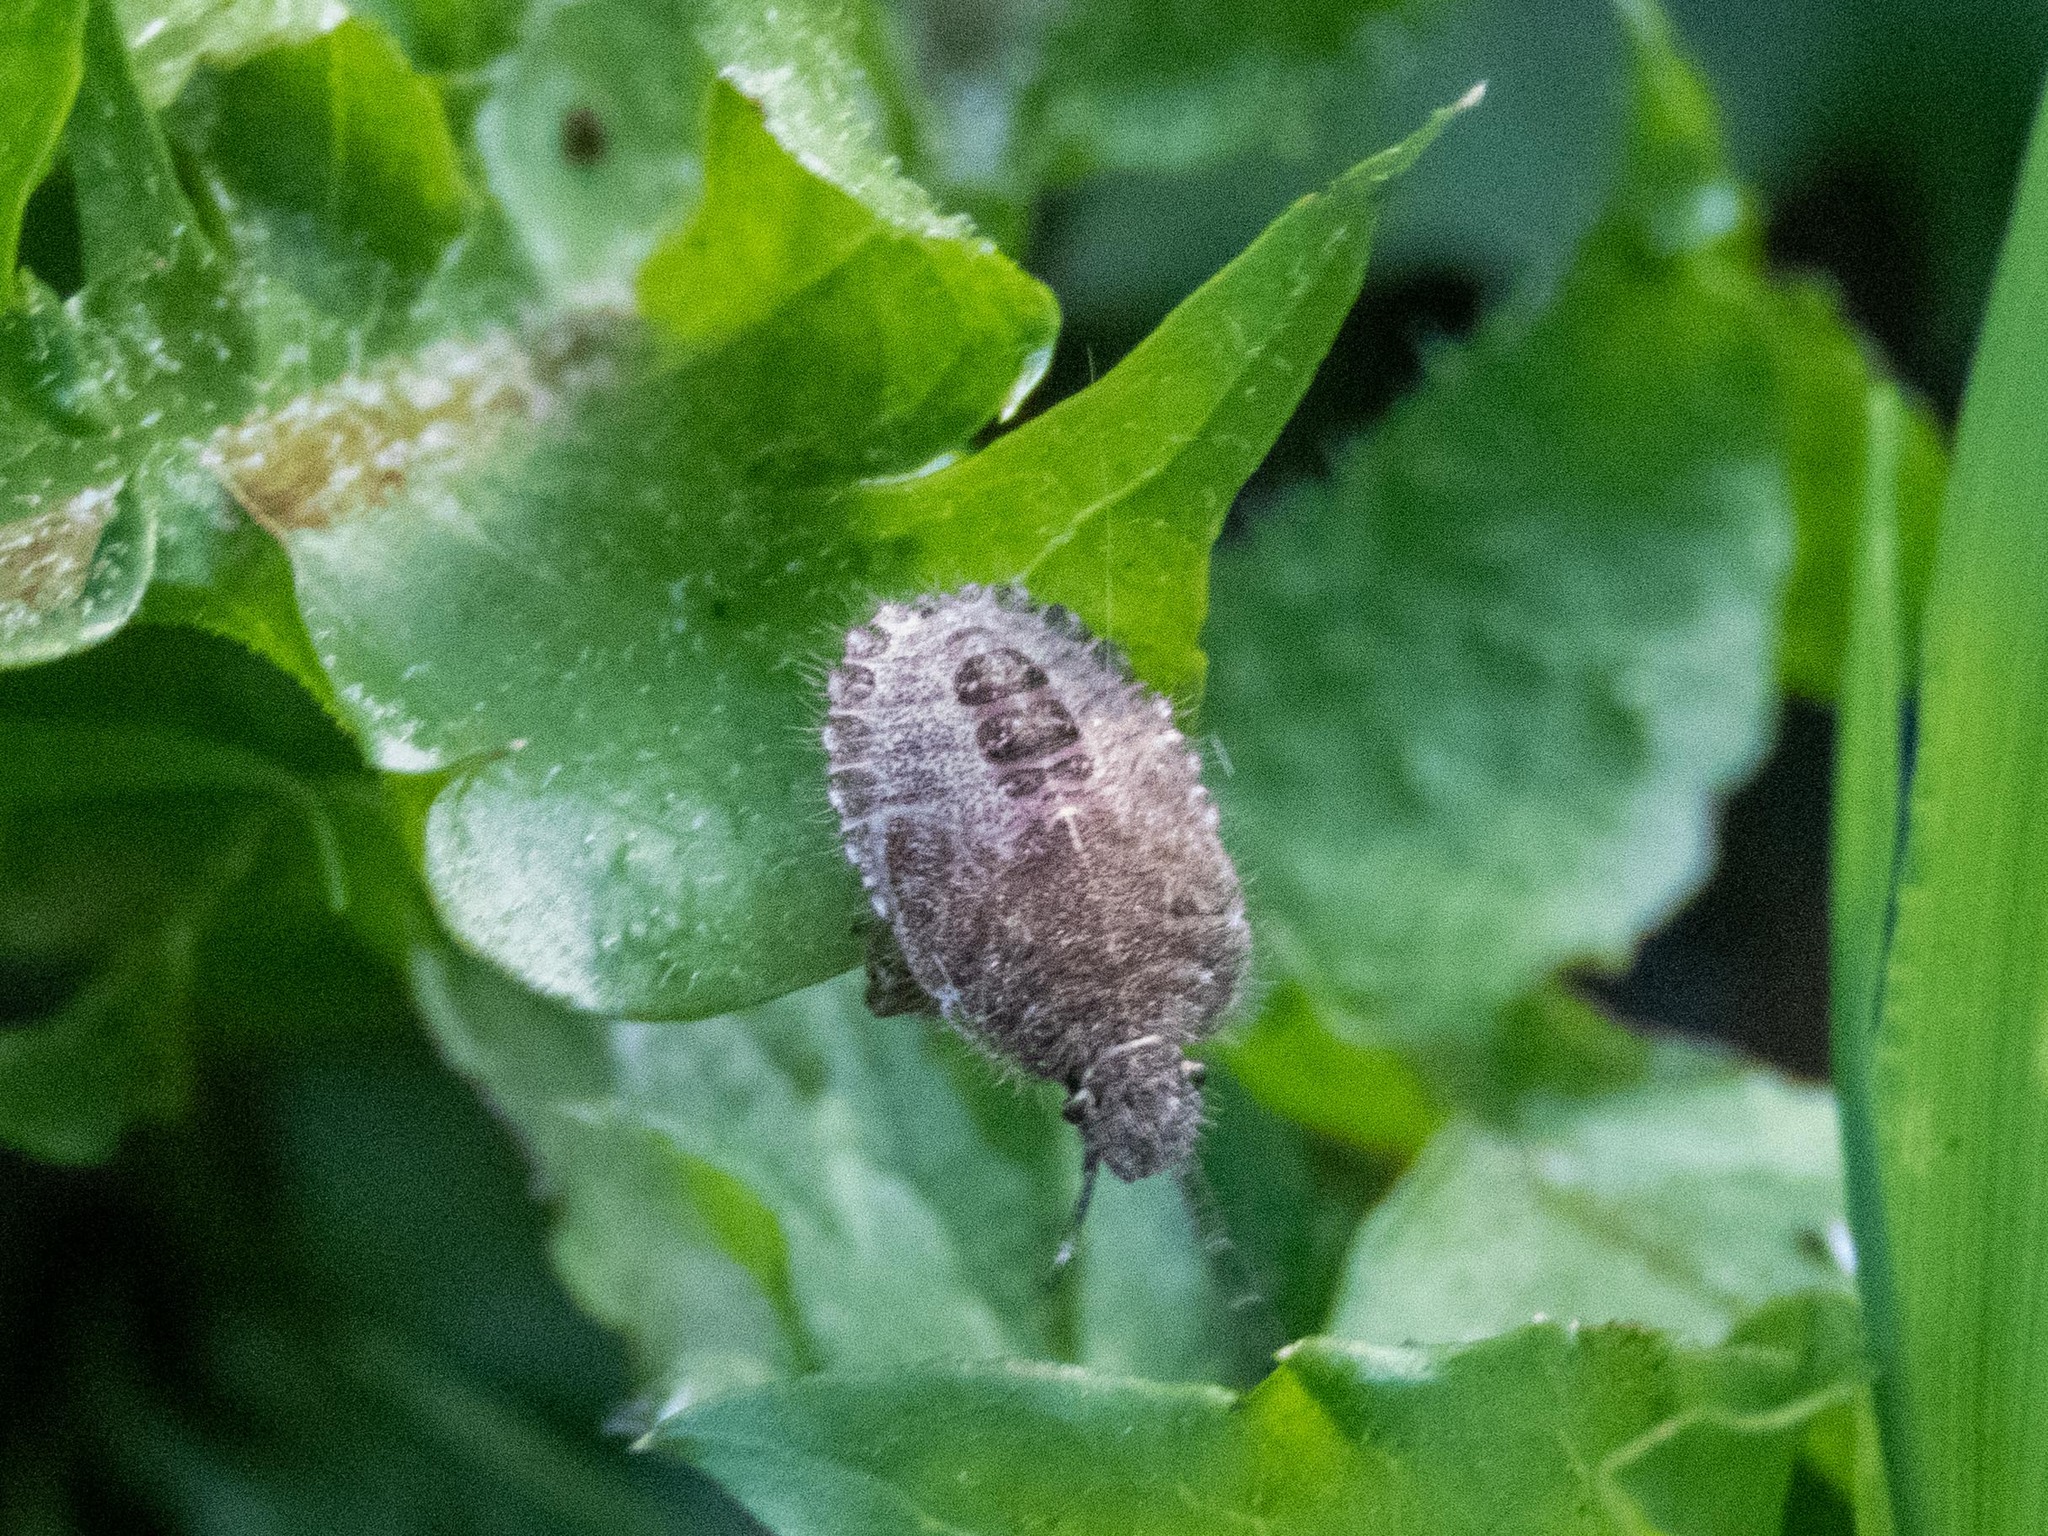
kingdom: Animalia
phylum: Arthropoda
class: Insecta
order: Hemiptera
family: Pentatomidae
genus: Dolycoris
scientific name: Dolycoris baccarum
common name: Sloe bug
